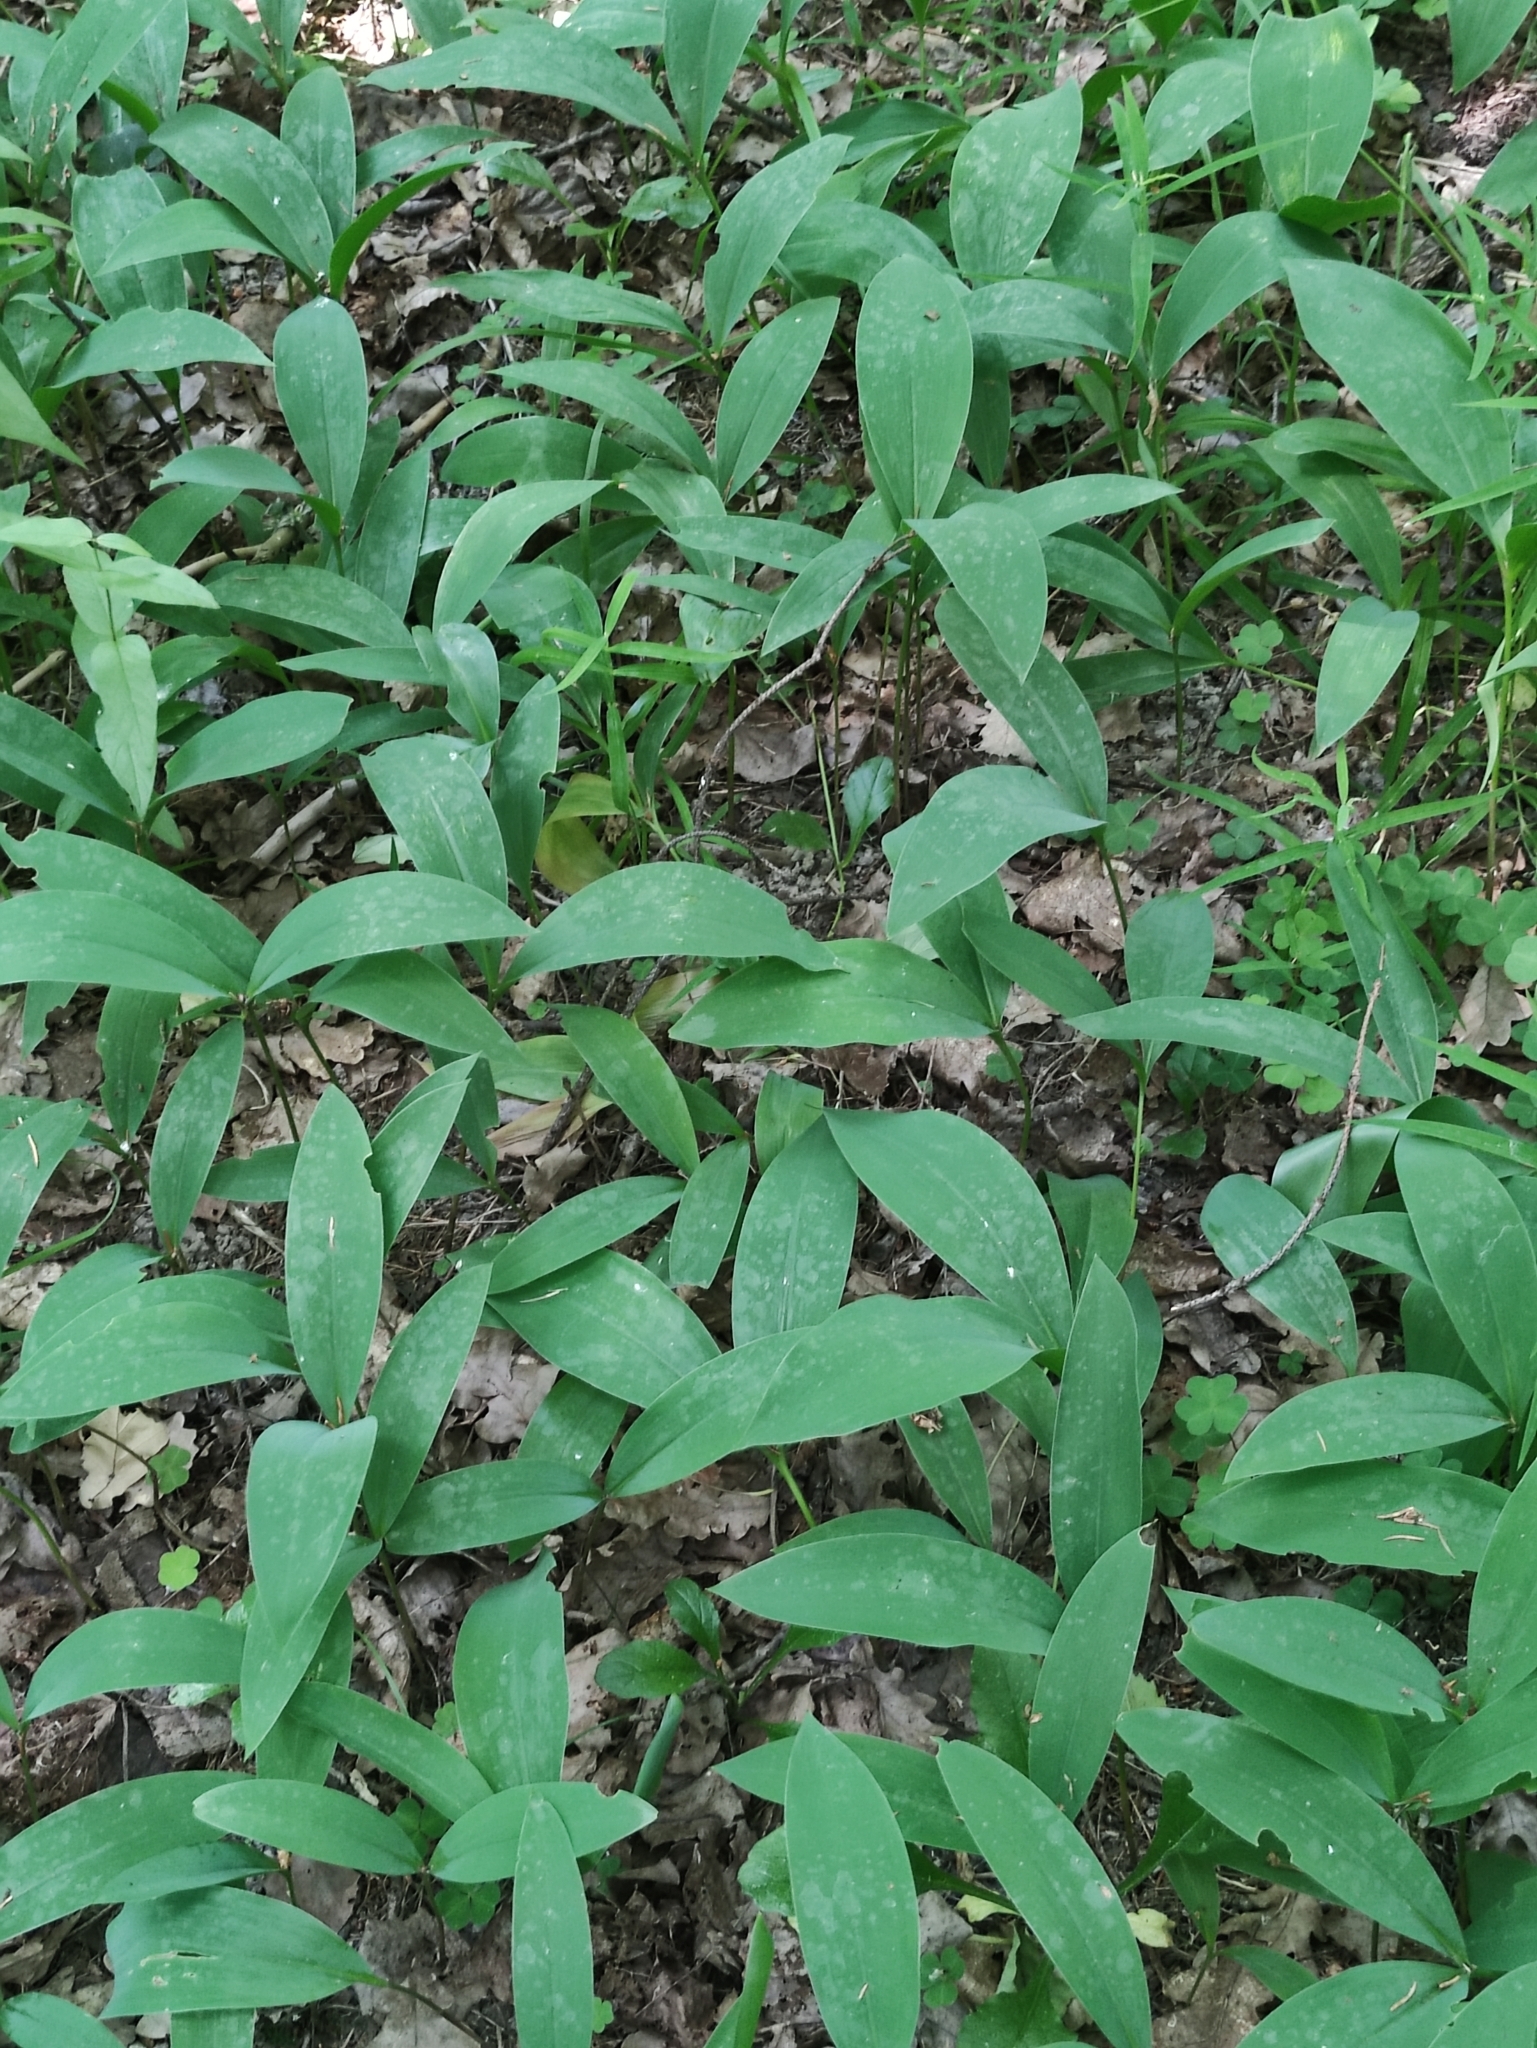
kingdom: Plantae
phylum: Tracheophyta
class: Liliopsida
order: Asparagales
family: Asparagaceae
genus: Convallaria
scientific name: Convallaria majalis
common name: Lily-of-the-valley
